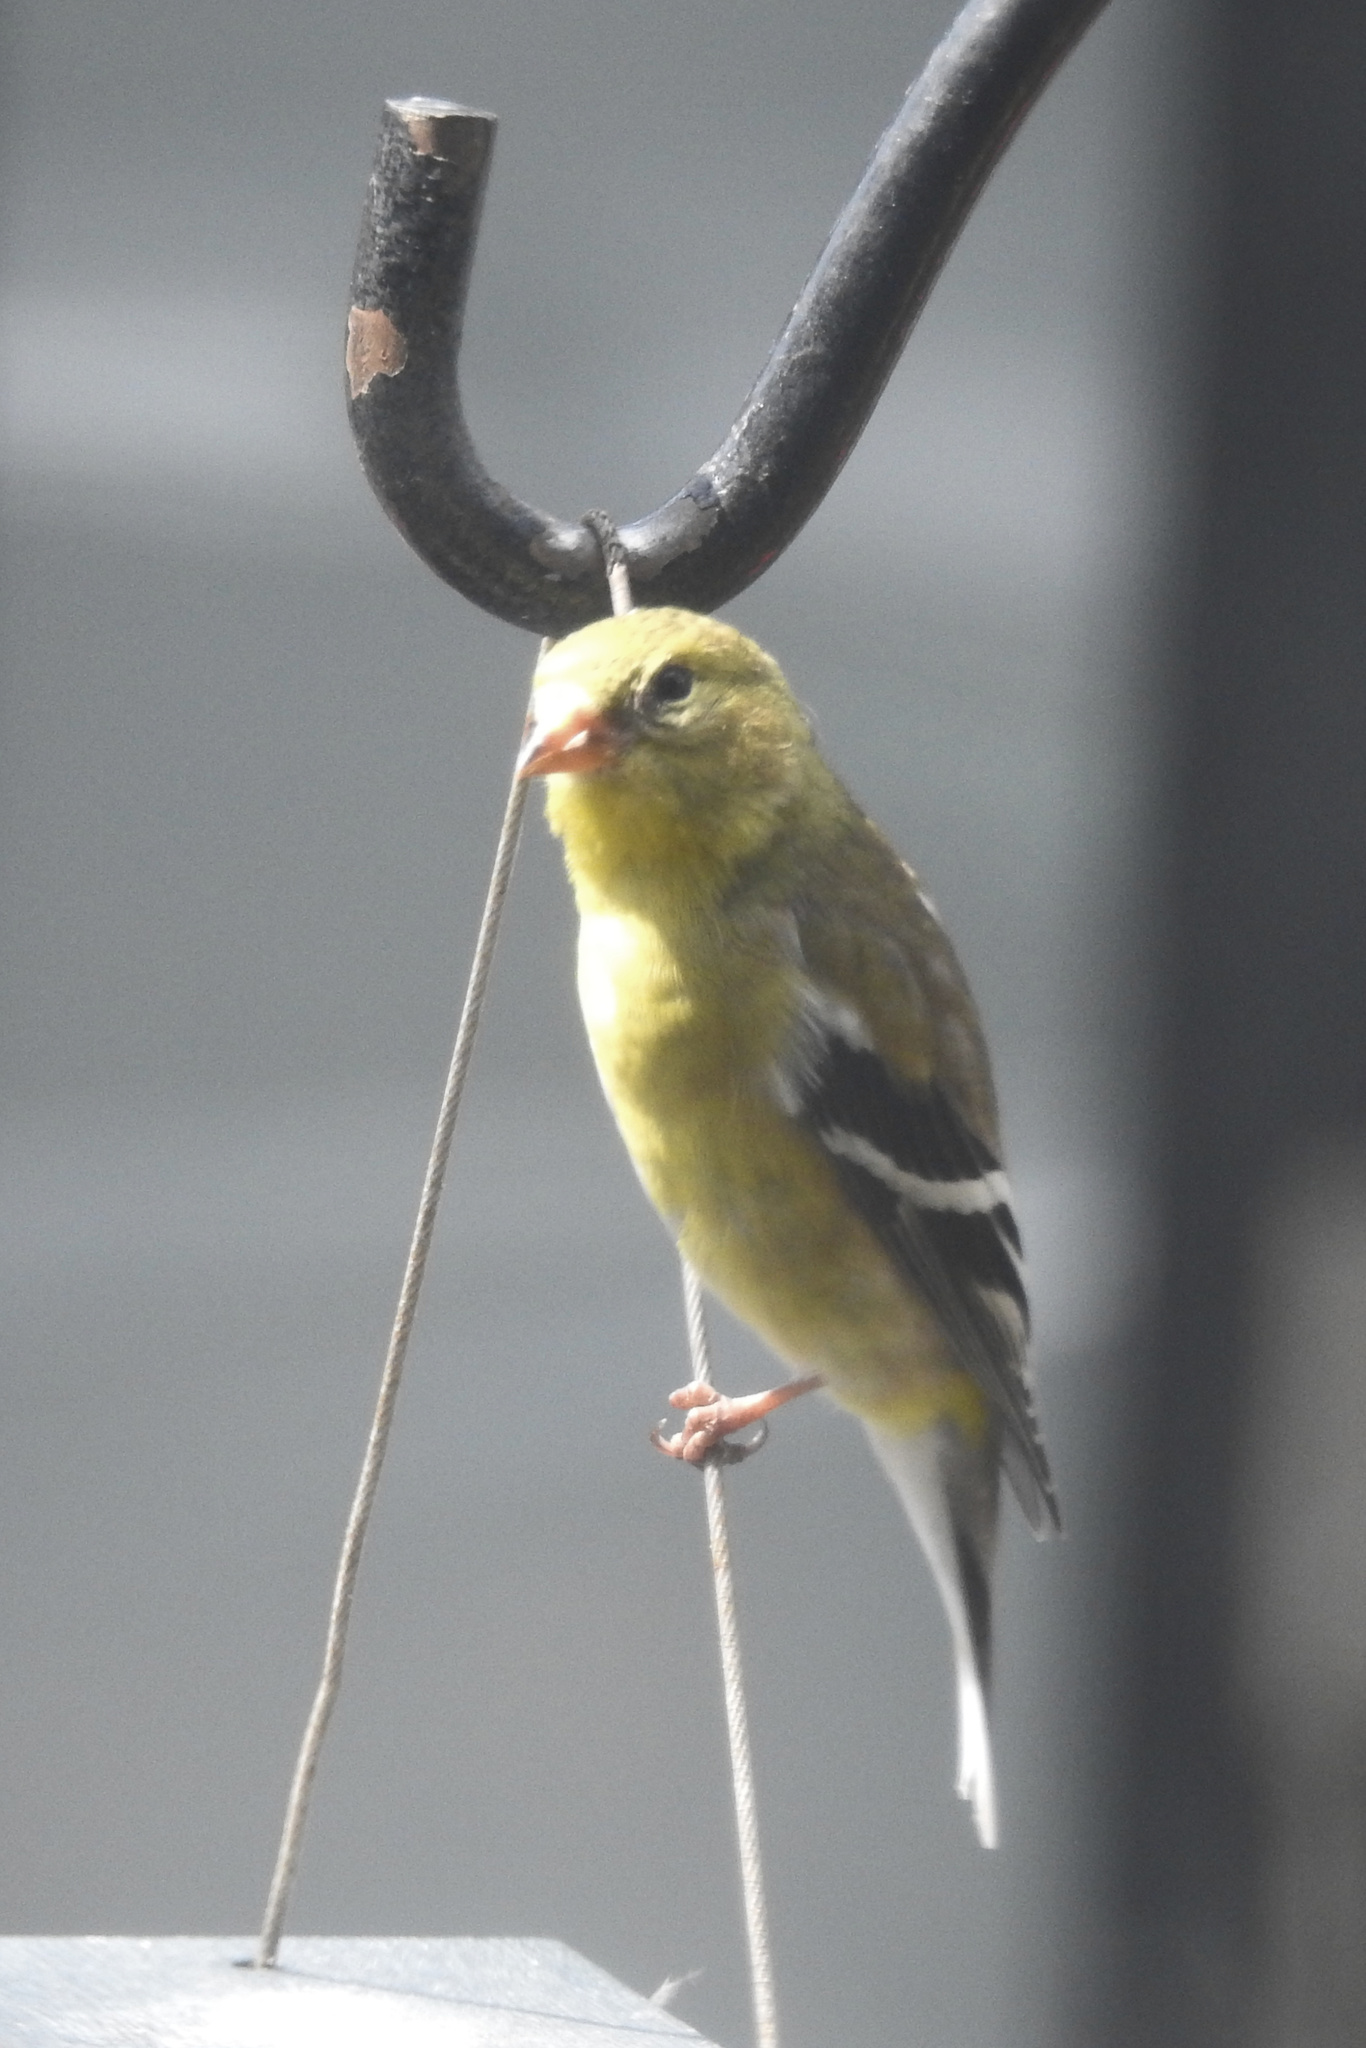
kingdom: Animalia
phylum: Chordata
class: Aves
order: Passeriformes
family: Fringillidae
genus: Spinus
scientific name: Spinus tristis
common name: American goldfinch
